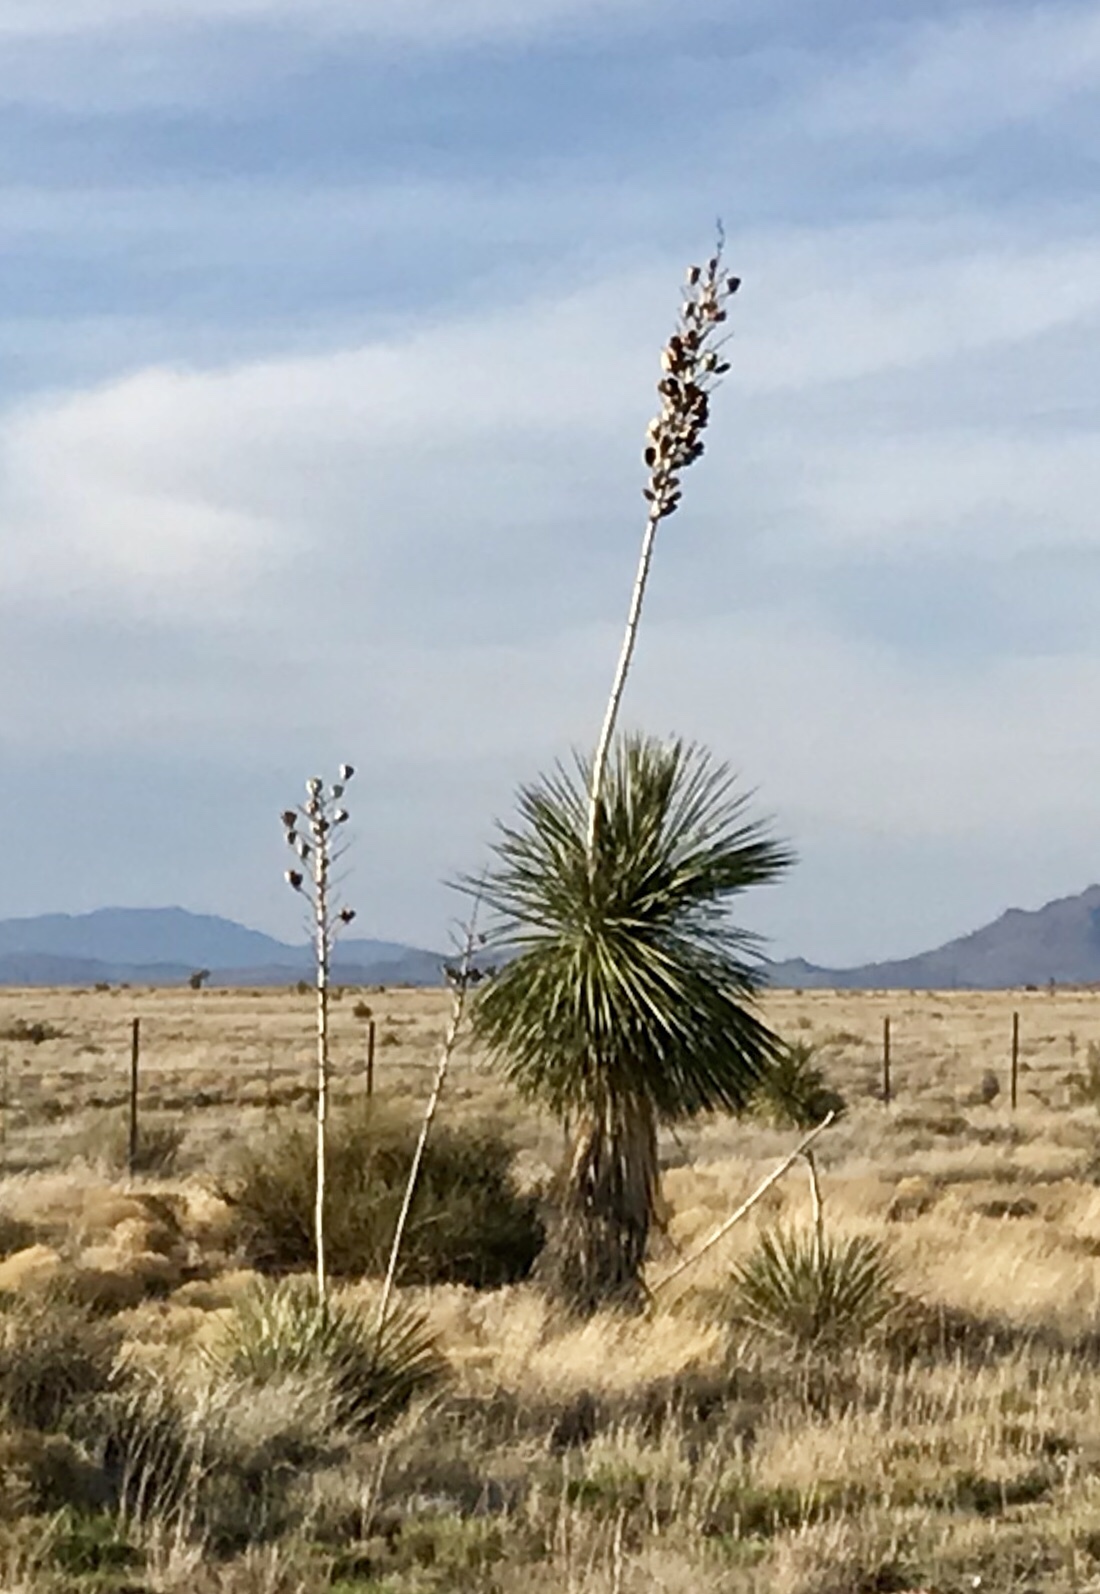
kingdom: Plantae
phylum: Tracheophyta
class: Liliopsida
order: Asparagales
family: Asparagaceae
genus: Yucca
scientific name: Yucca elata
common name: Palmella
